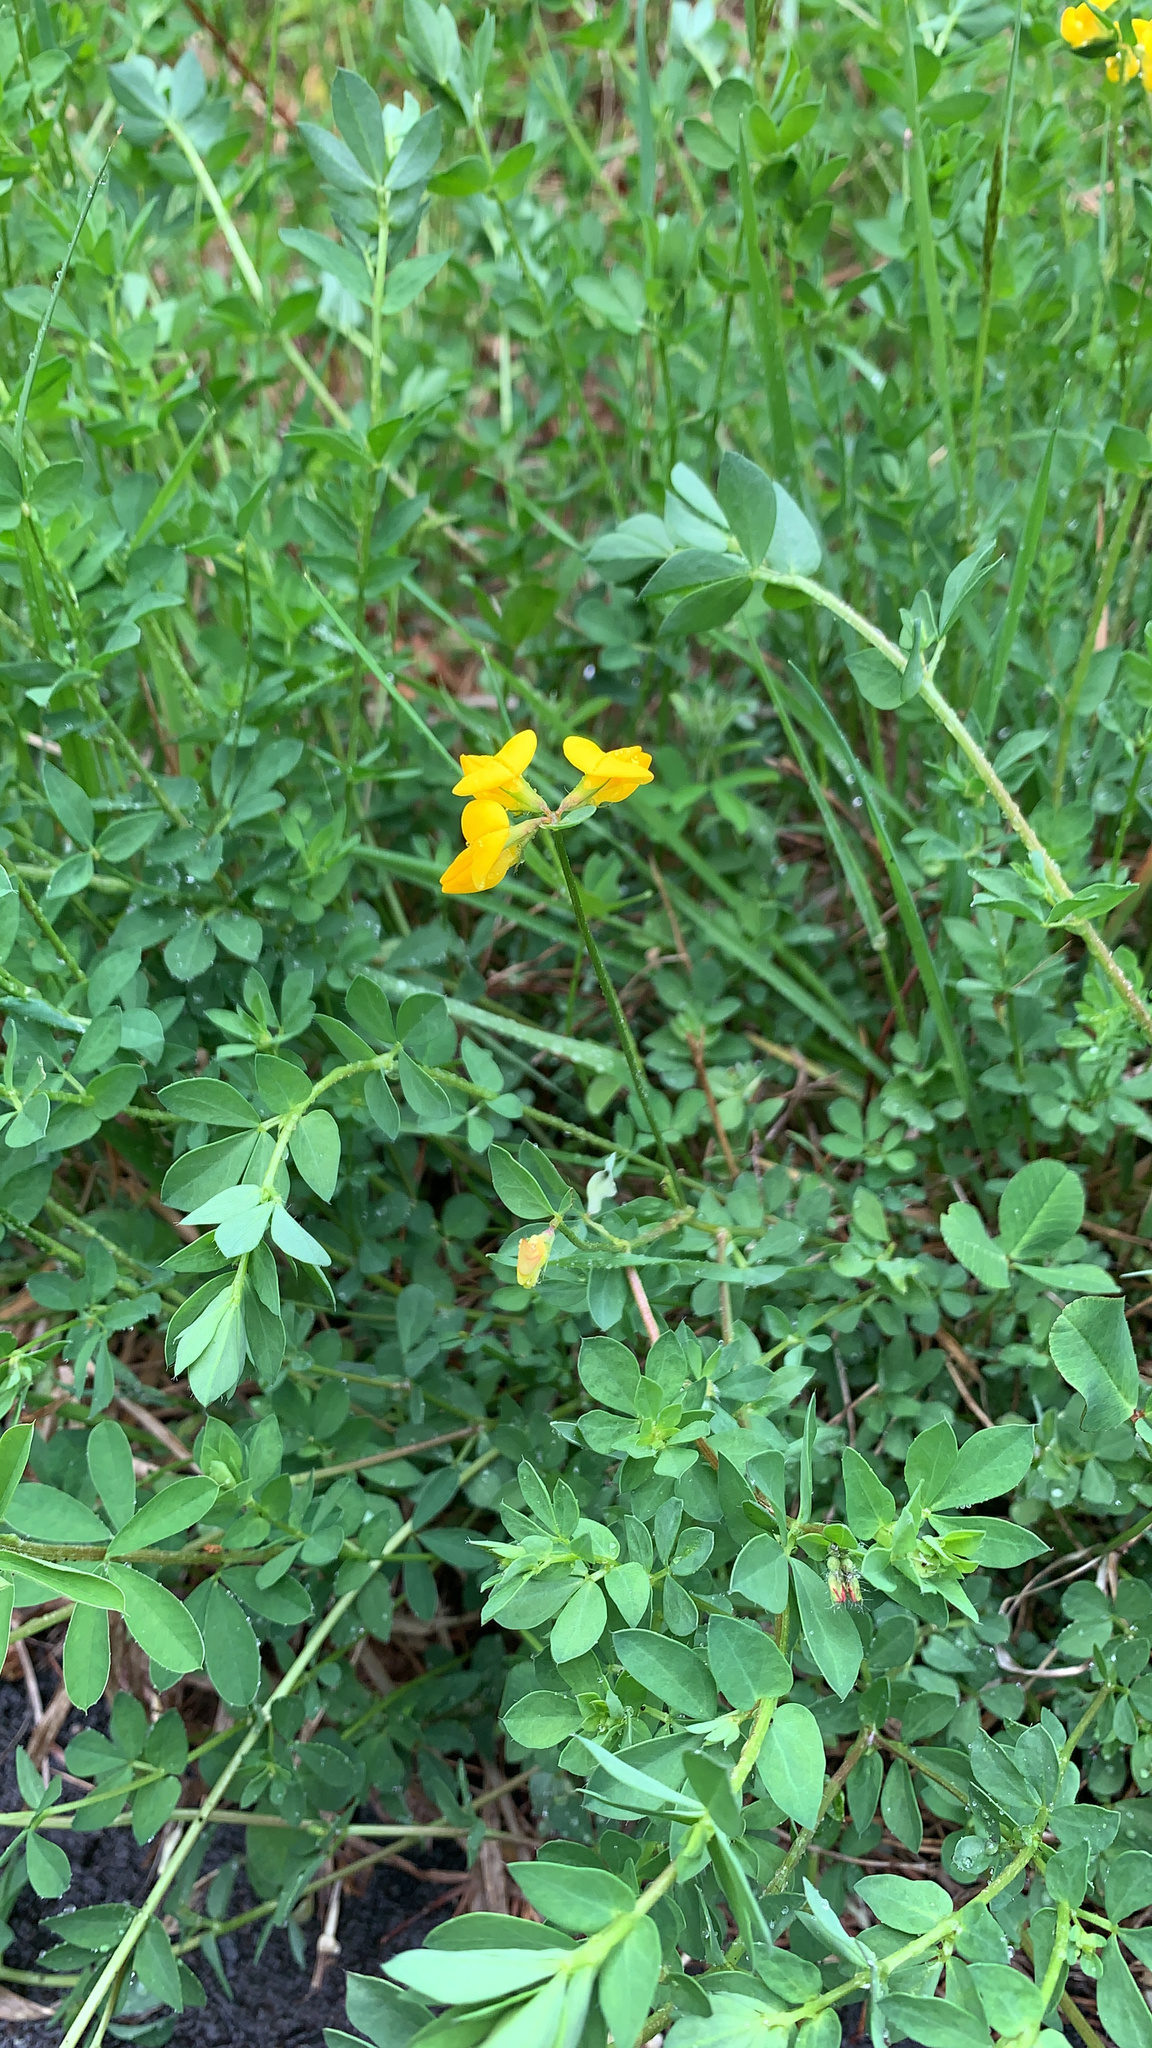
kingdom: Plantae
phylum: Tracheophyta
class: Magnoliopsida
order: Fabales
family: Fabaceae
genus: Lotus
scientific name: Lotus corniculatus
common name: Common bird's-foot-trefoil
